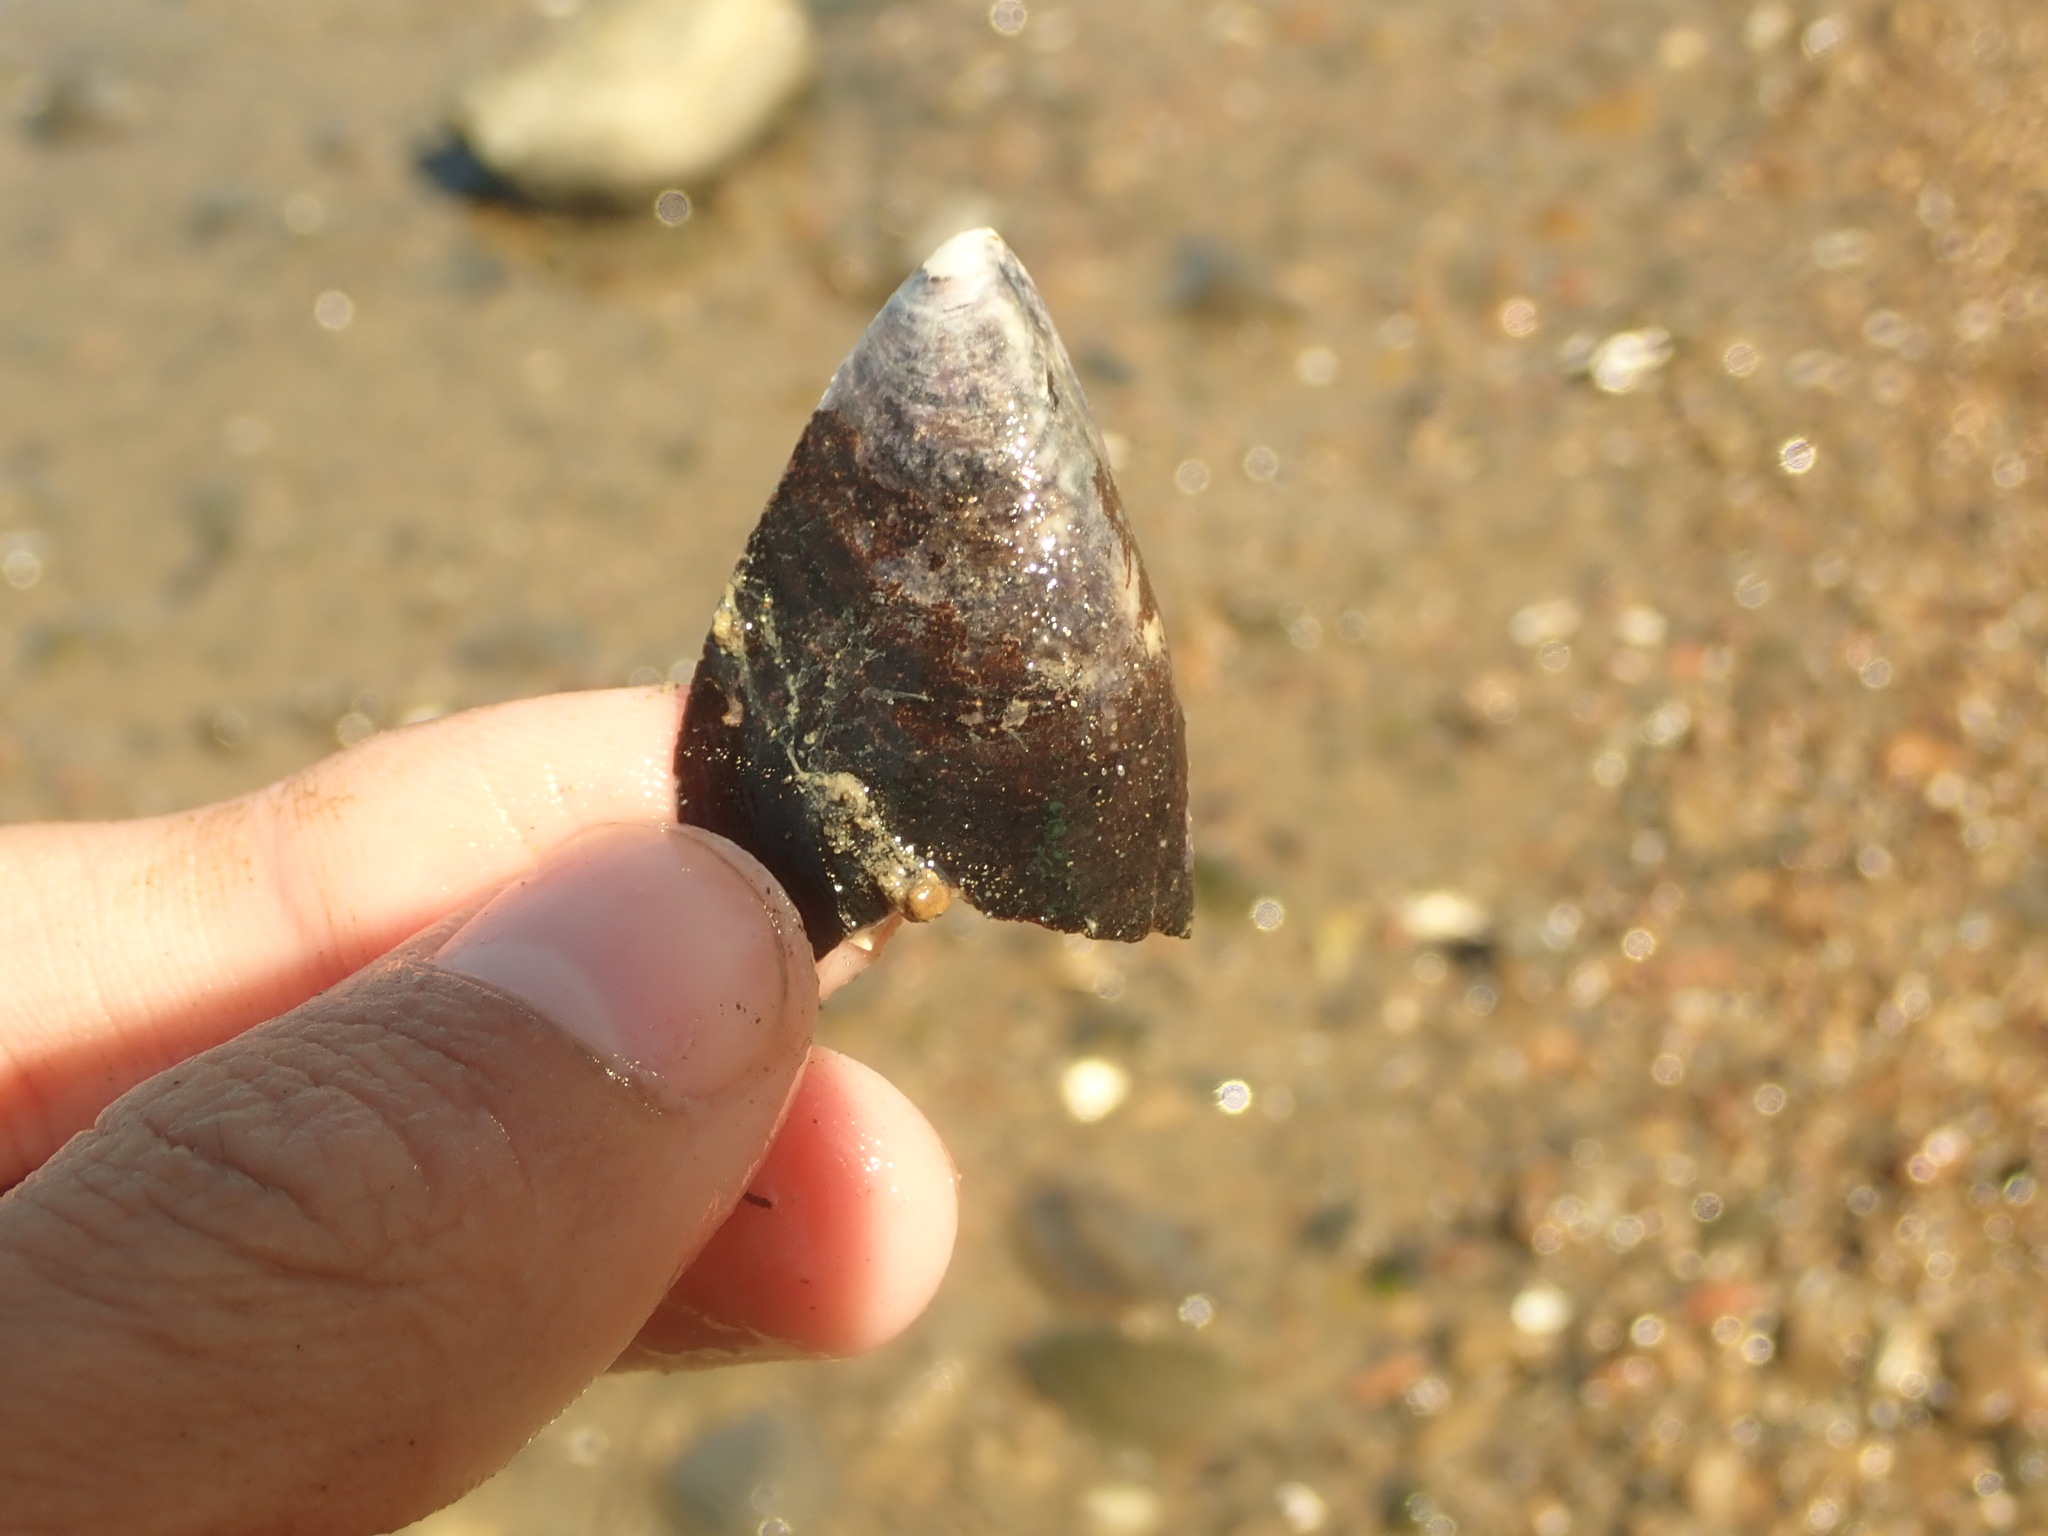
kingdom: Animalia
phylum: Mollusca
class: Bivalvia
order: Mytilida
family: Mytilidae
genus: Mytilus
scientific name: Mytilus
